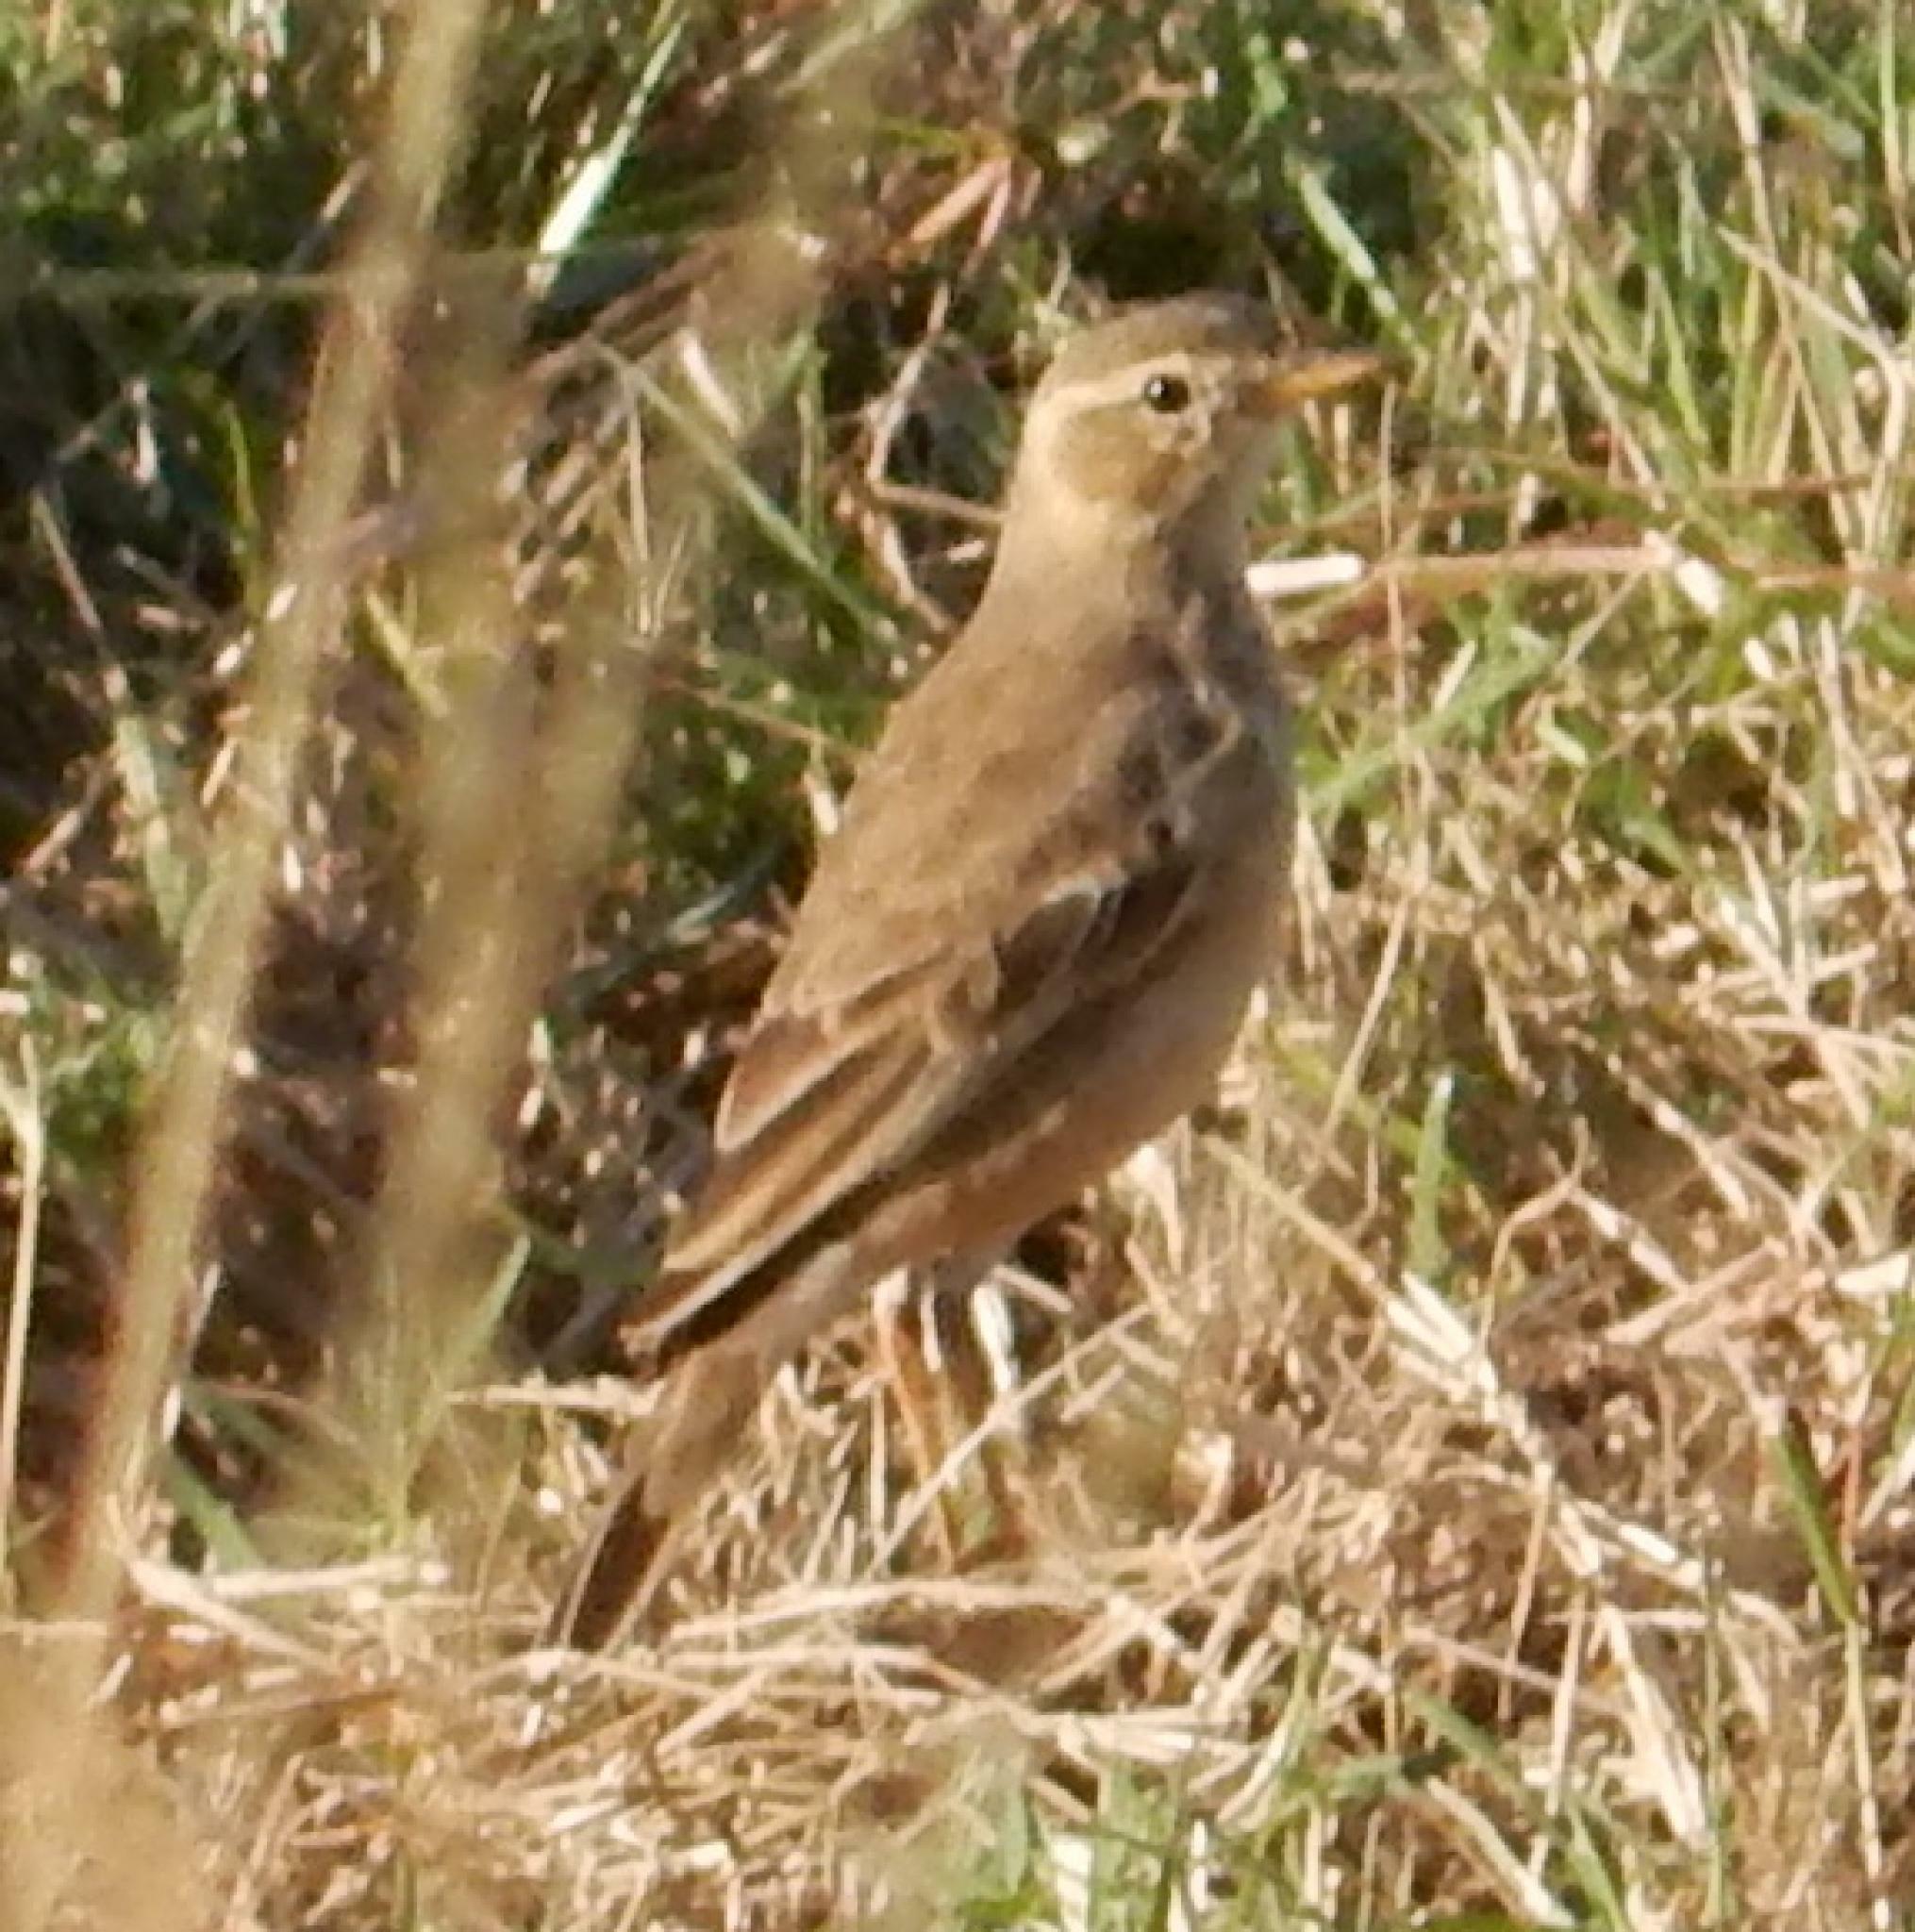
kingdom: Animalia
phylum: Chordata
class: Aves
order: Passeriformes
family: Motacillidae
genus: Anthus
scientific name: Anthus leucophrys
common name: Plain-backed pipit
